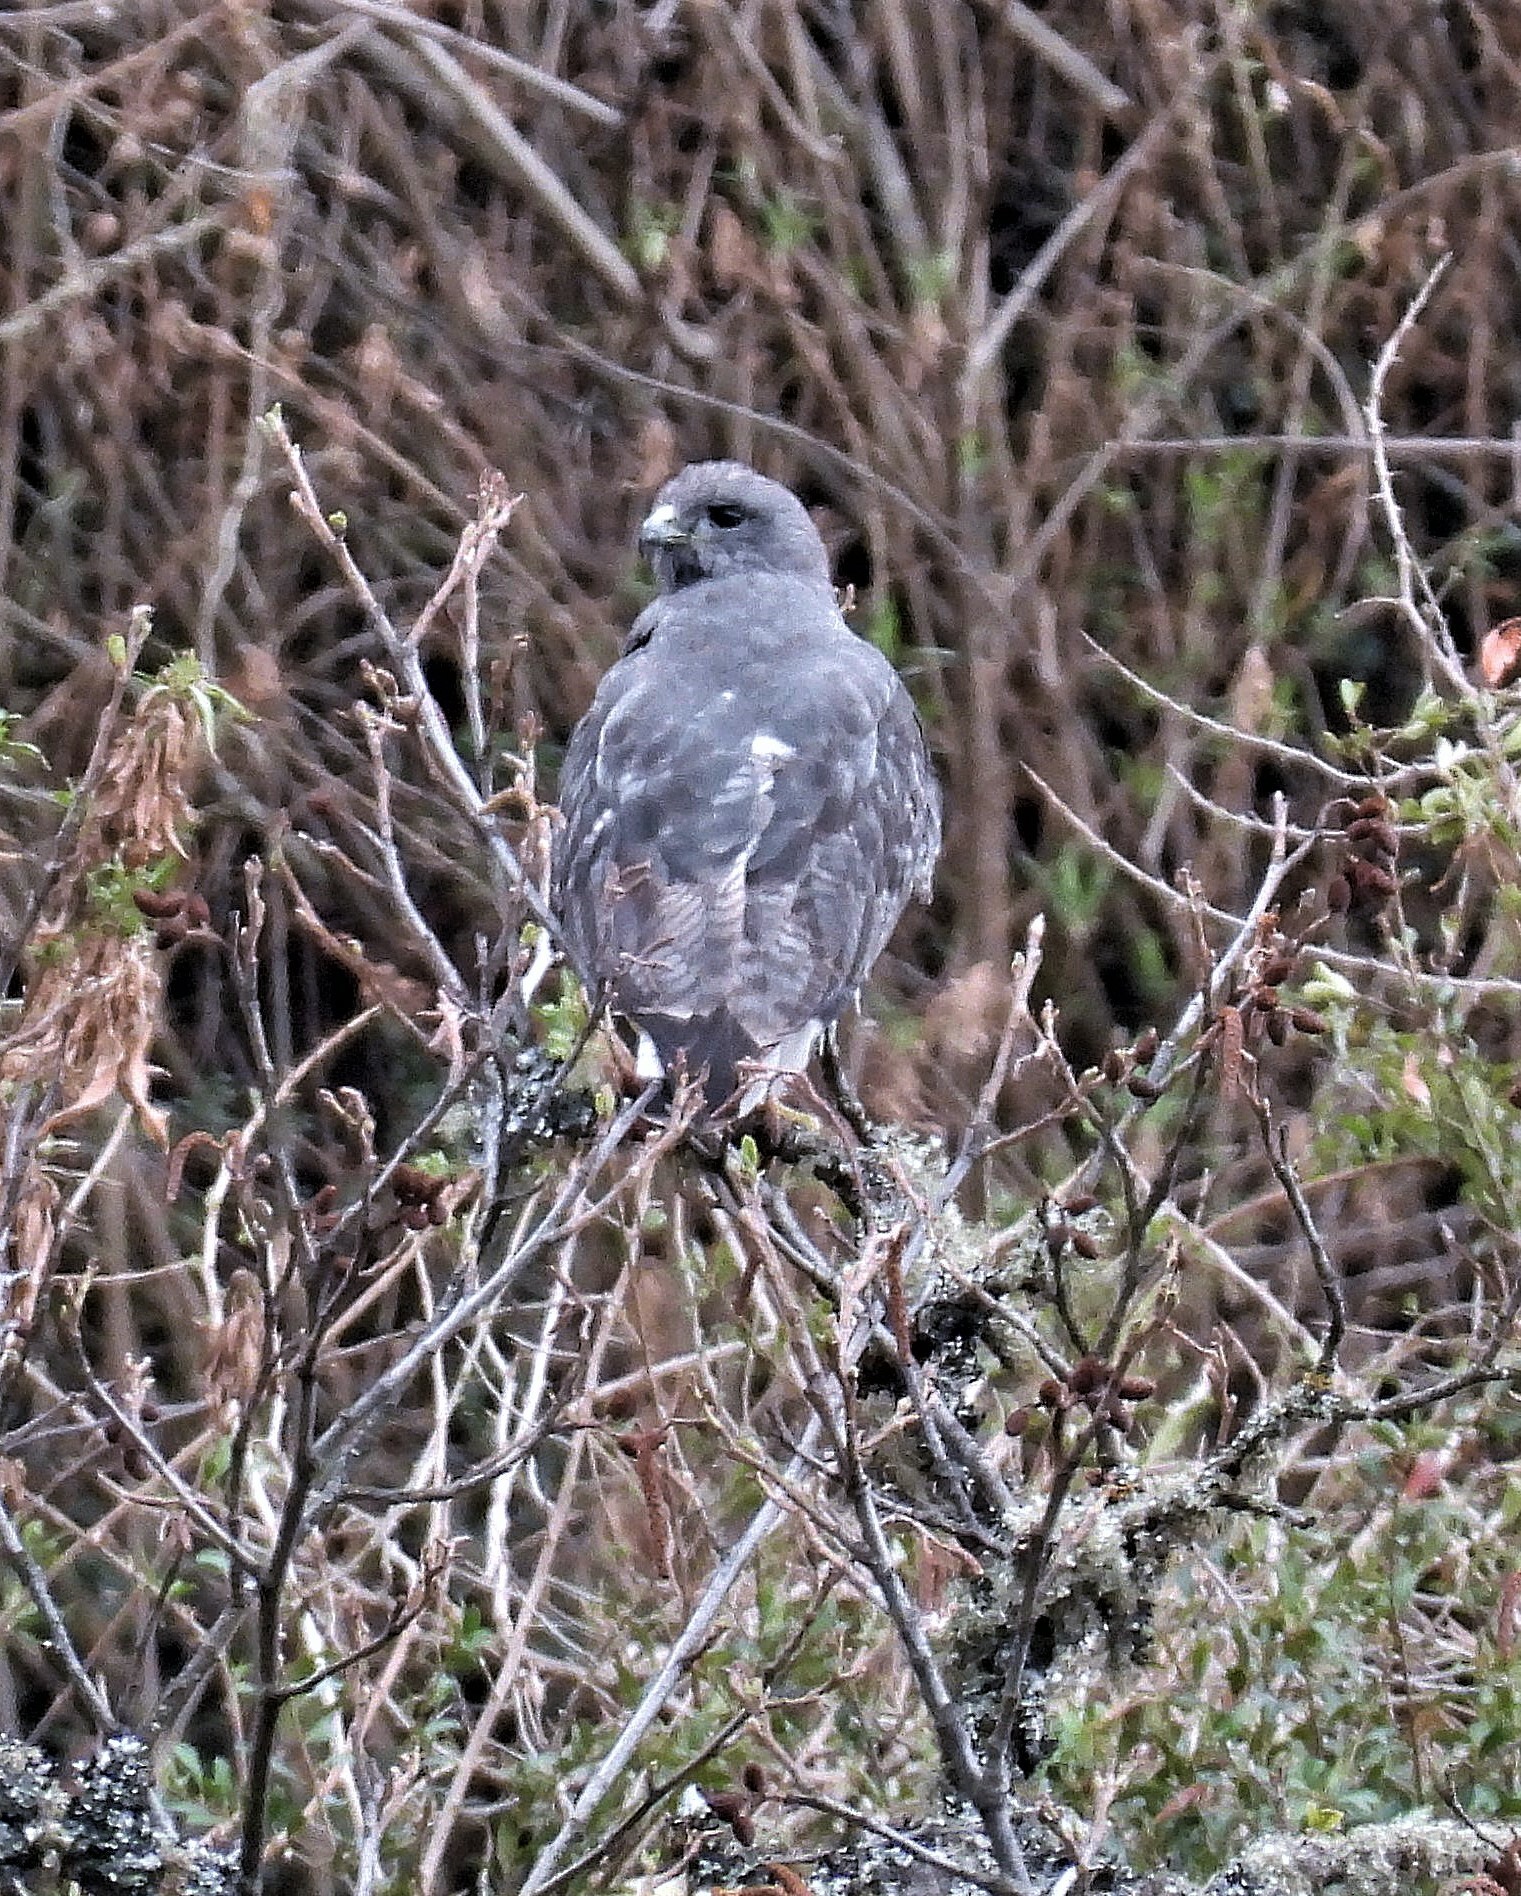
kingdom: Animalia
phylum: Chordata
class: Aves
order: Accipitriformes
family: Accipitridae
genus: Buteo
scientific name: Buteo polyosoma
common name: Variable hawk
